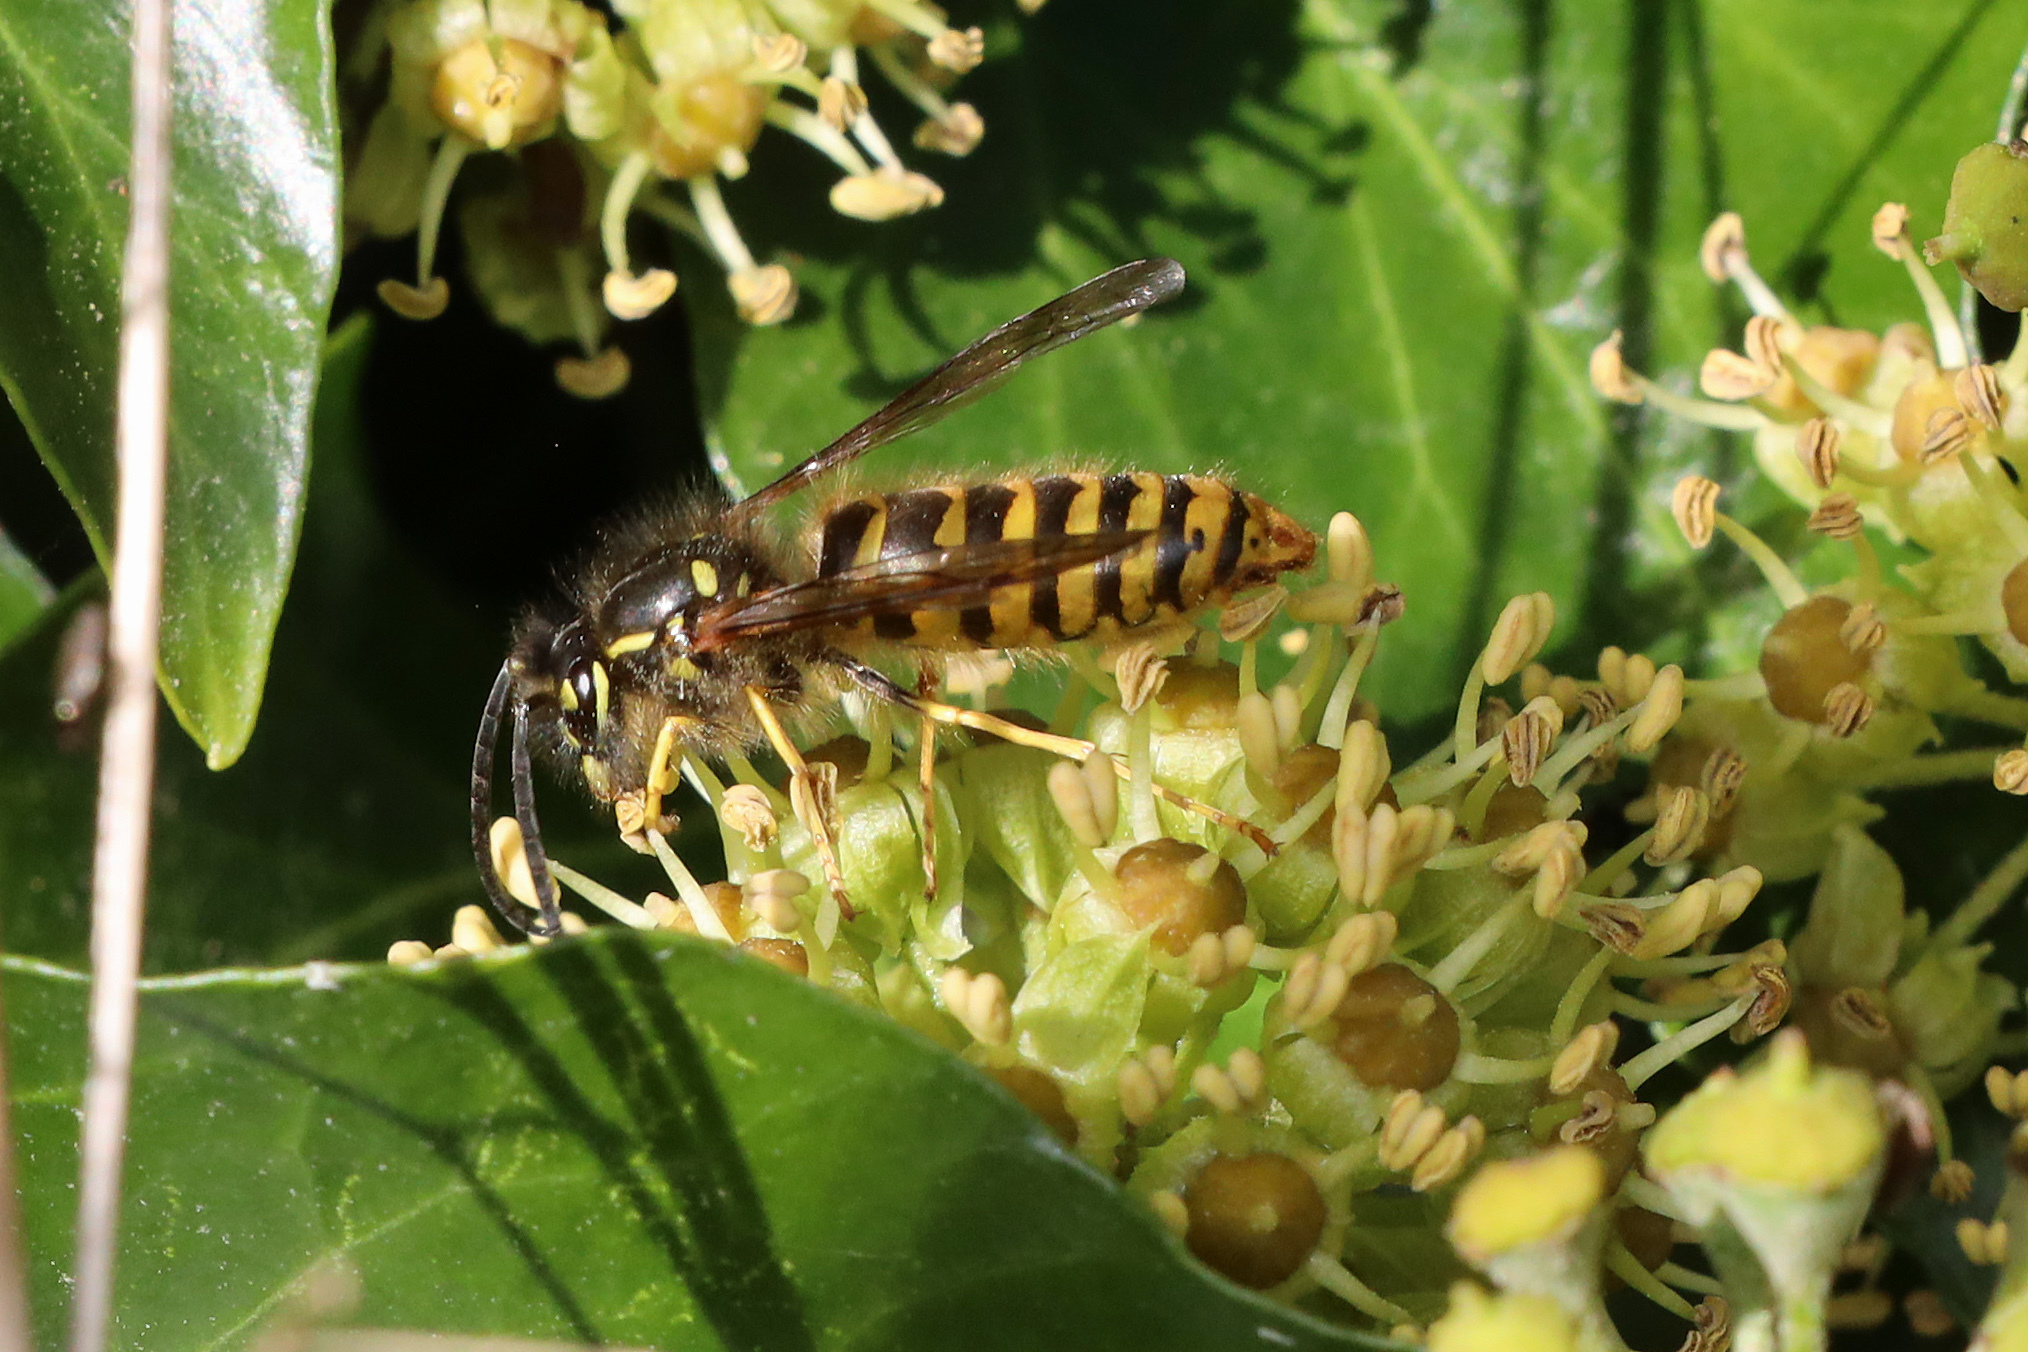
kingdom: Animalia
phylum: Arthropoda
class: Insecta
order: Hymenoptera
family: Vespidae
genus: Vespula
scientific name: Vespula vulgaris
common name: Common wasp
